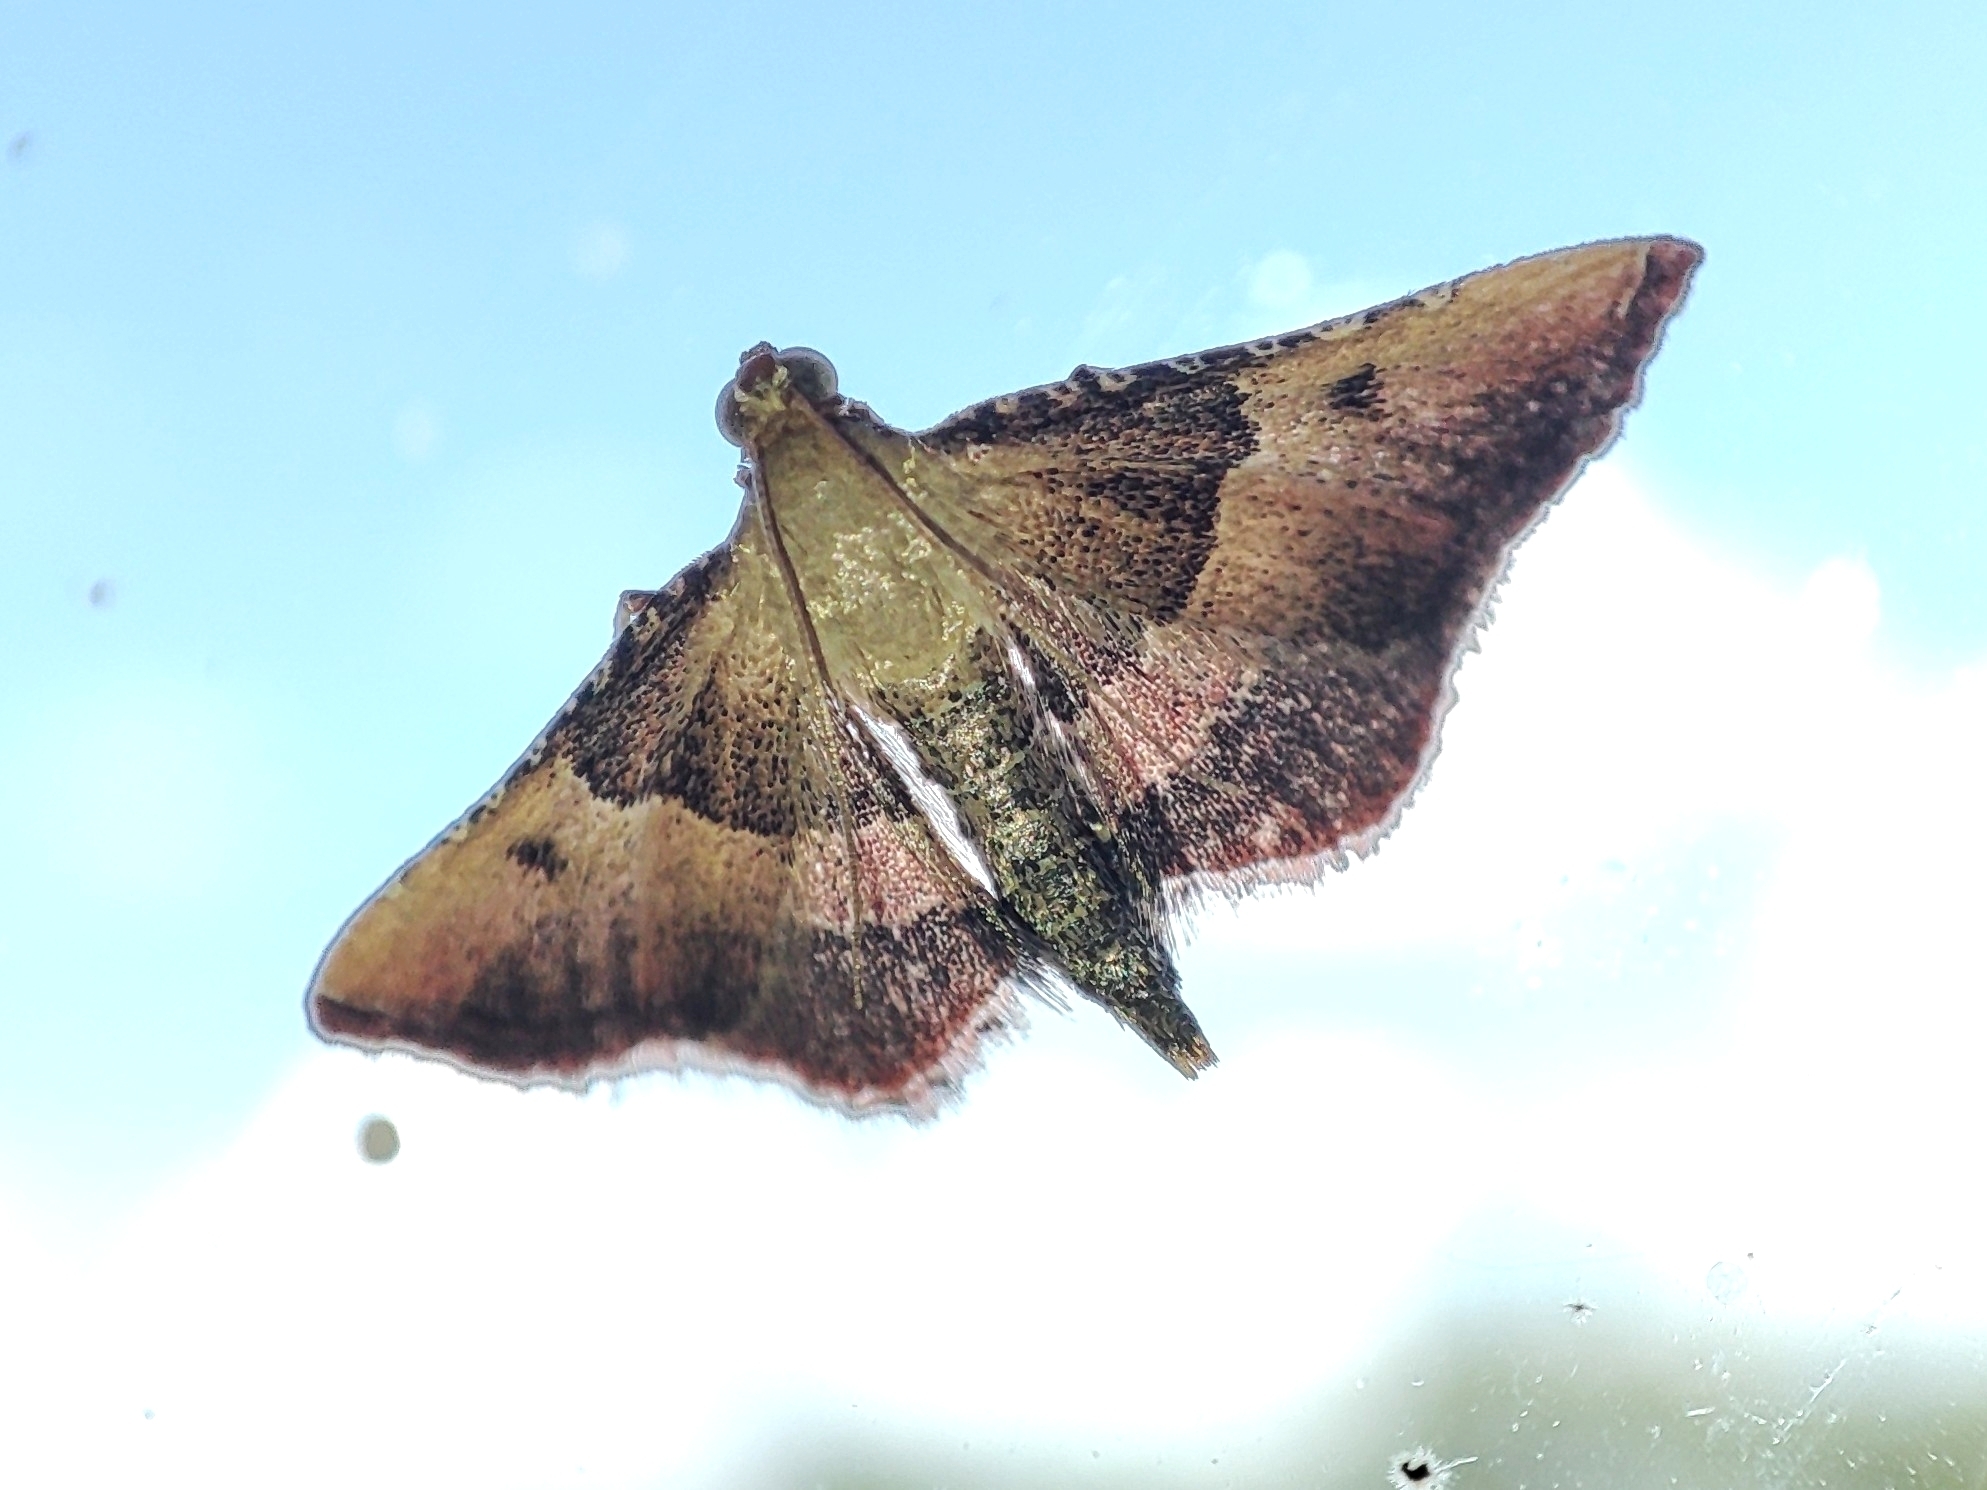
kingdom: Animalia
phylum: Arthropoda
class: Insecta
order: Lepidoptera
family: Pyralidae
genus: Endotricha
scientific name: Endotricha flammealis
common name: Rosy tabby
